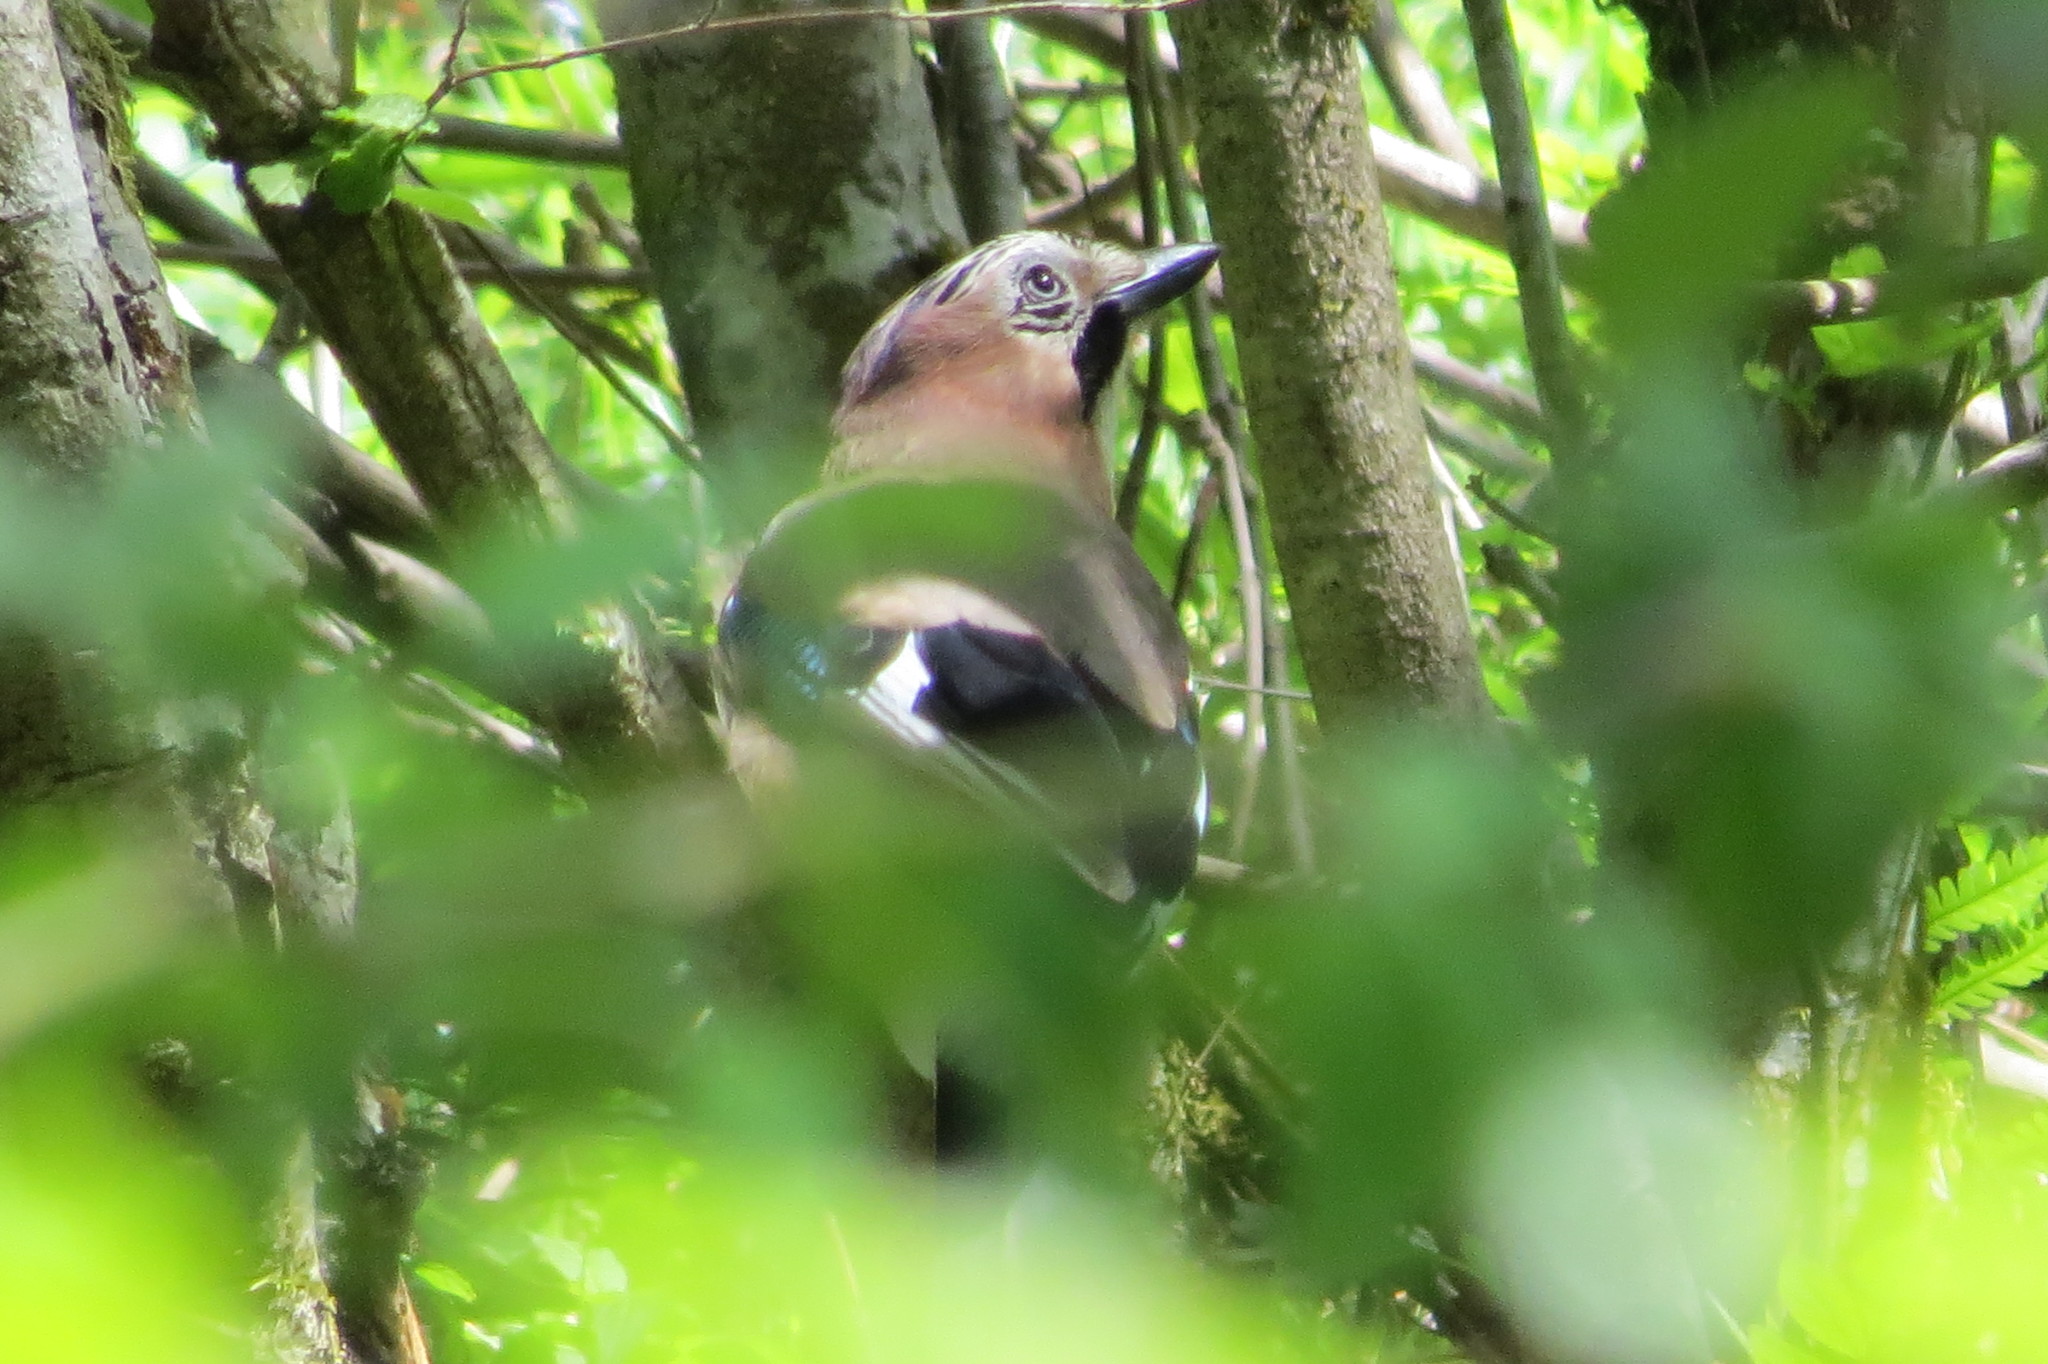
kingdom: Animalia
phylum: Chordata
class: Aves
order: Passeriformes
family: Corvidae
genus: Garrulus
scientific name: Garrulus glandarius
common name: Eurasian jay
